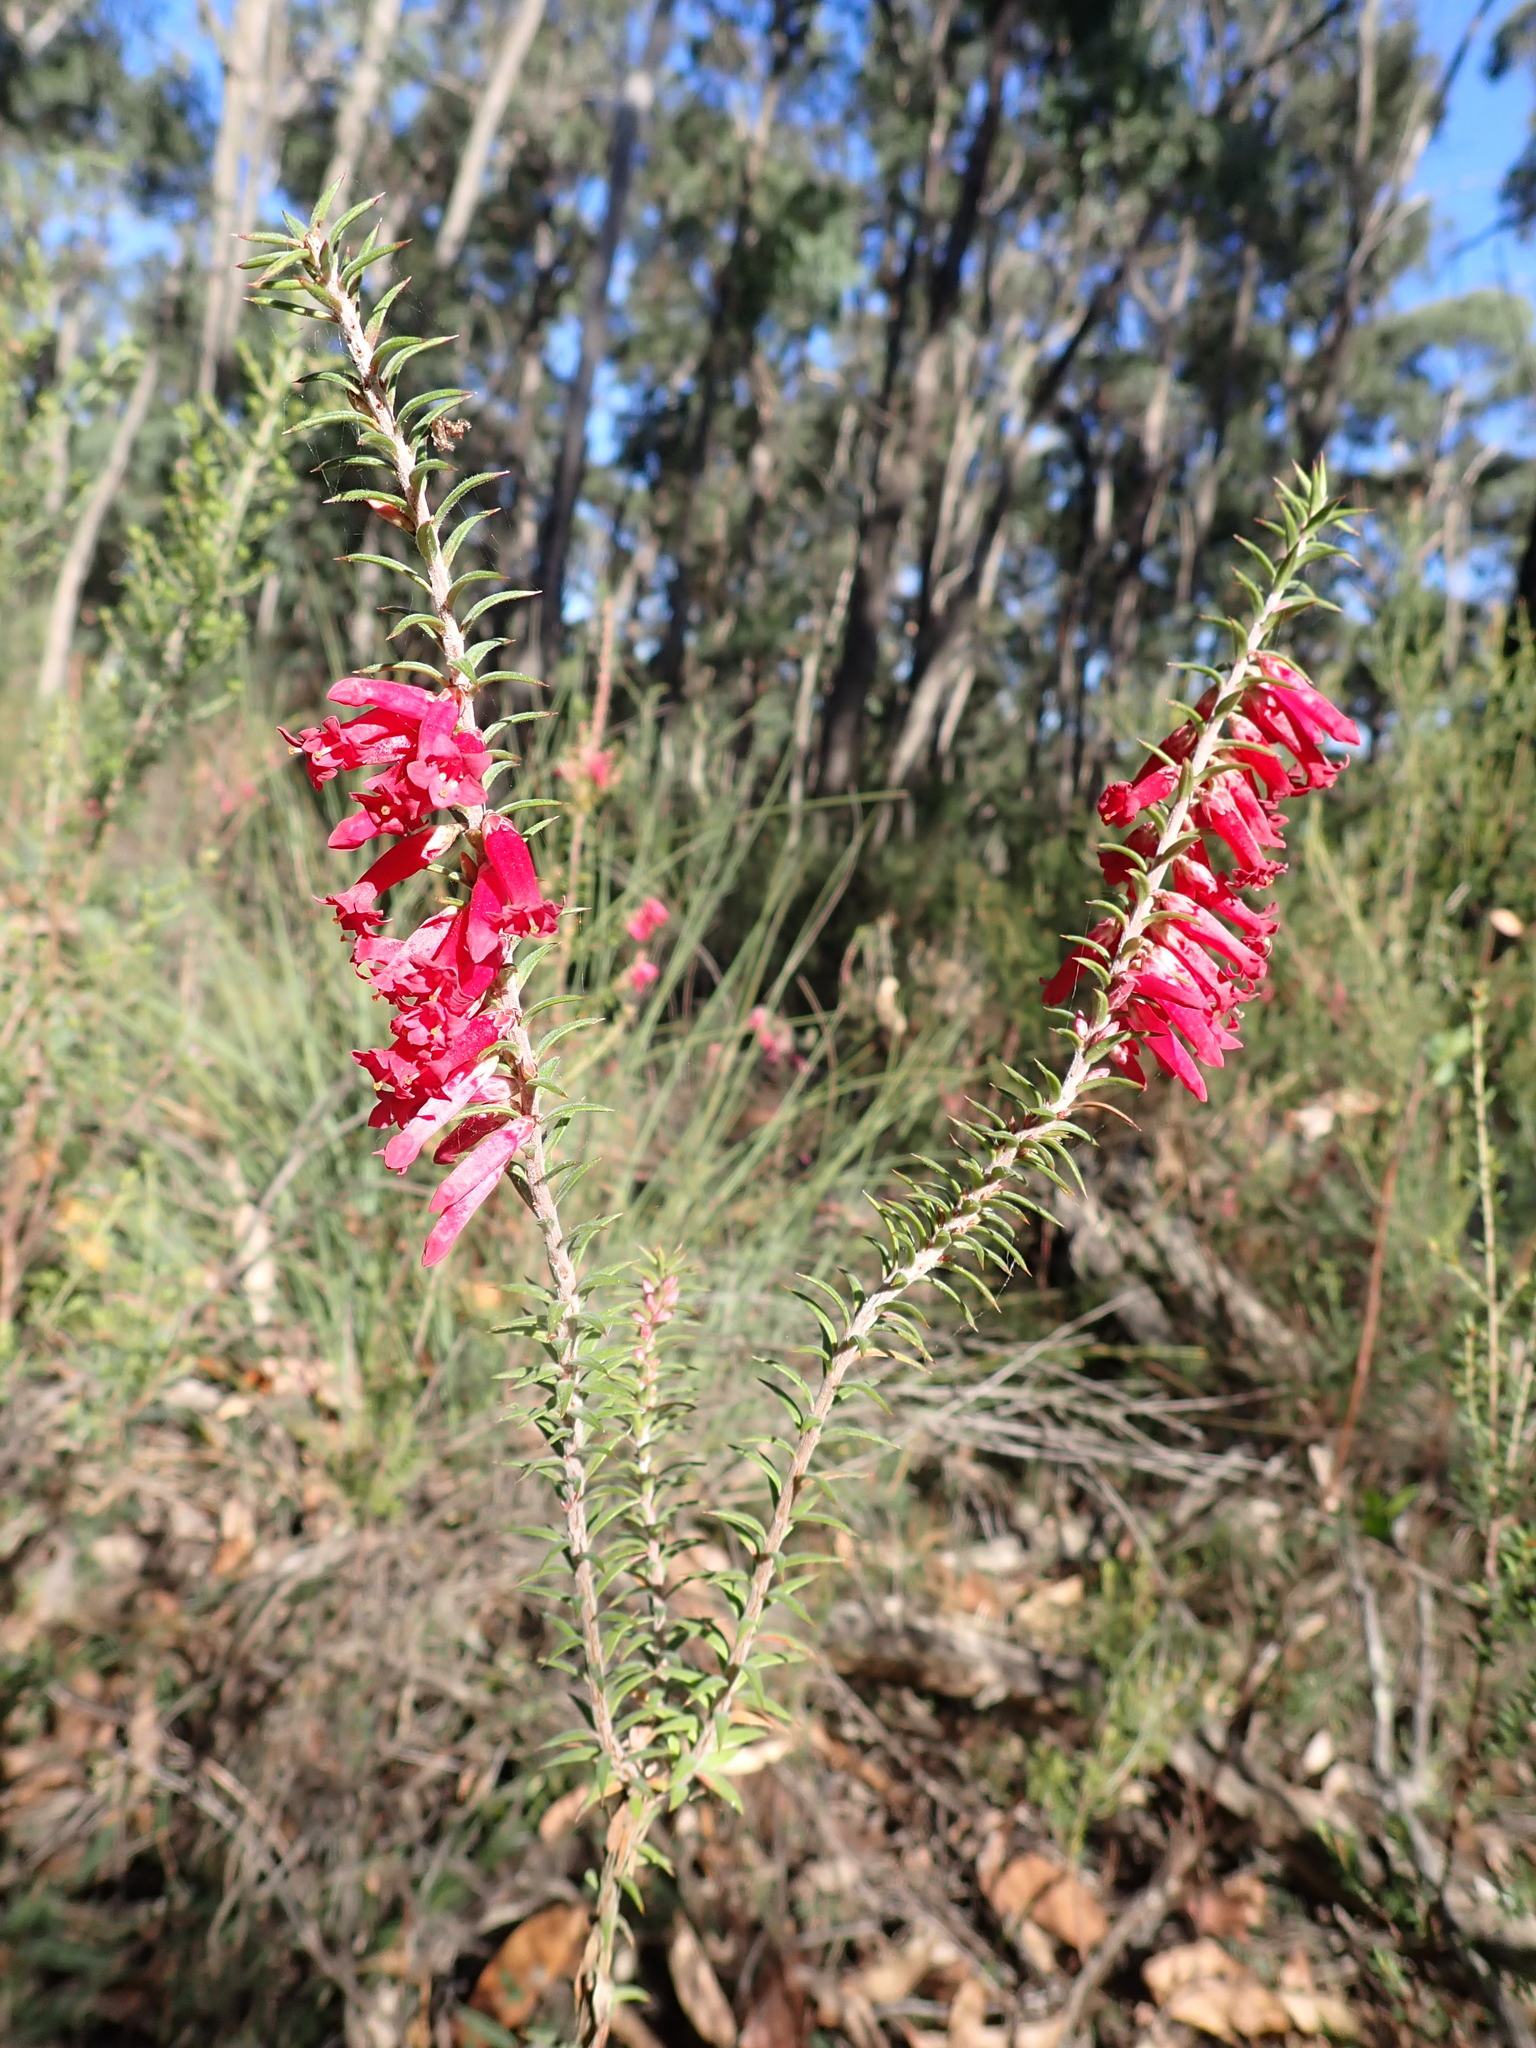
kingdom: Plantae
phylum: Tracheophyta
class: Magnoliopsida
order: Ericales
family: Ericaceae
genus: Epacris
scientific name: Epacris impressa
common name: Common-heath
